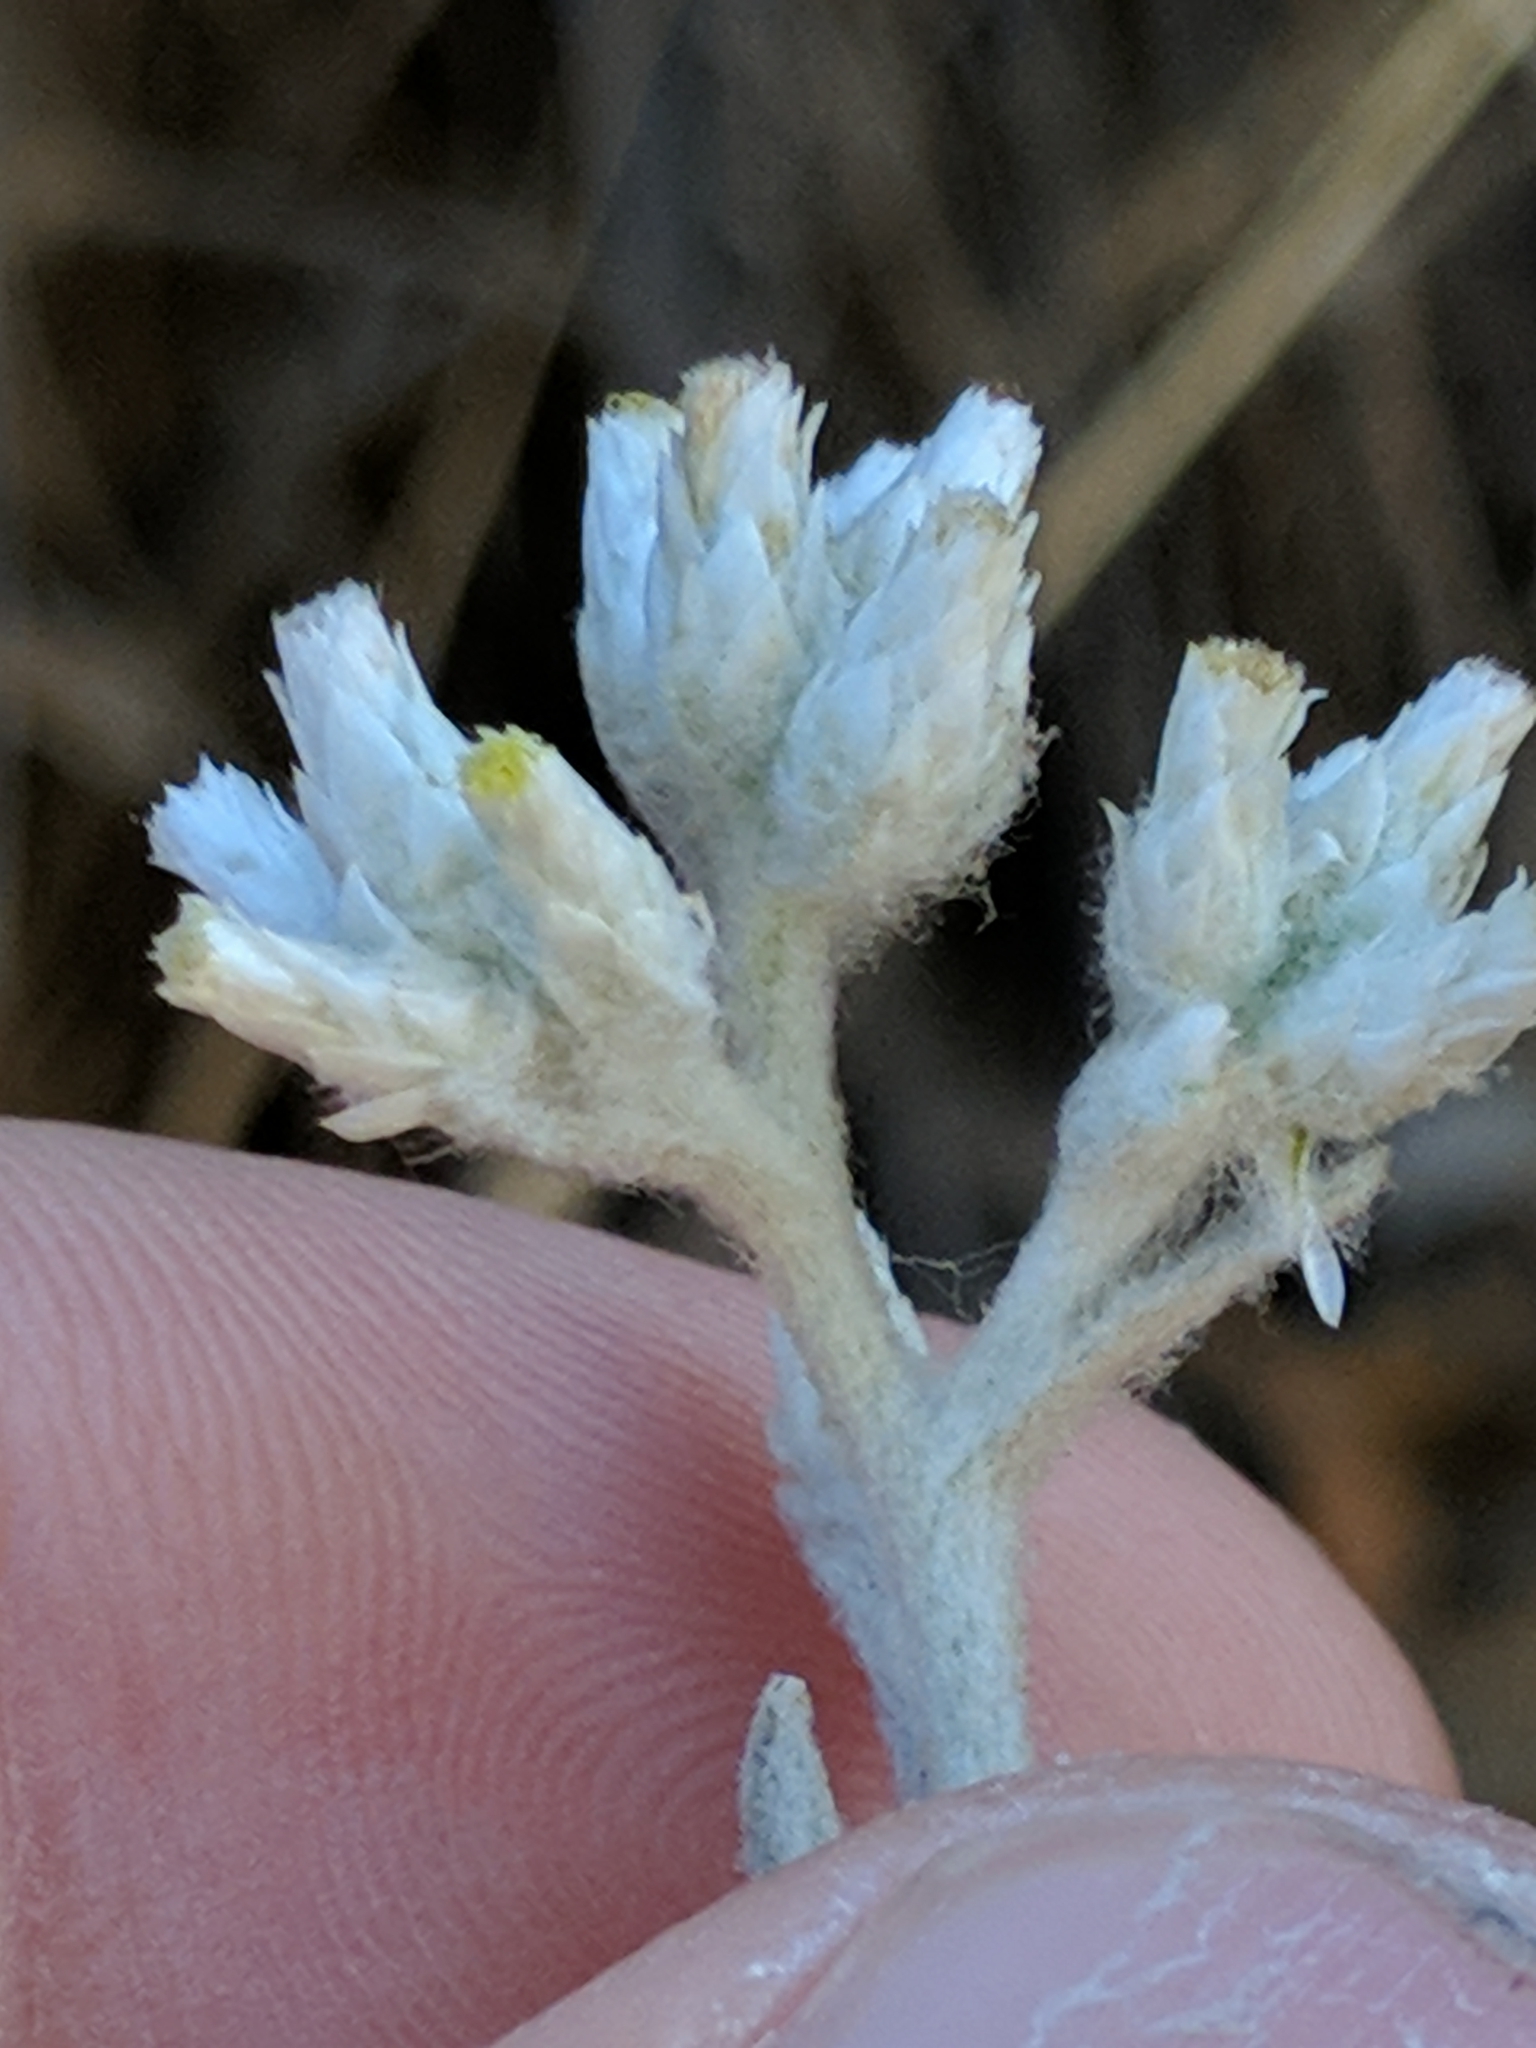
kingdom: Plantae
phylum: Tracheophyta
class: Magnoliopsida
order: Asterales
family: Asteraceae
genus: Pseudognaphalium
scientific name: Pseudognaphalium microcephalum
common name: San diego rabbit-tobacco
